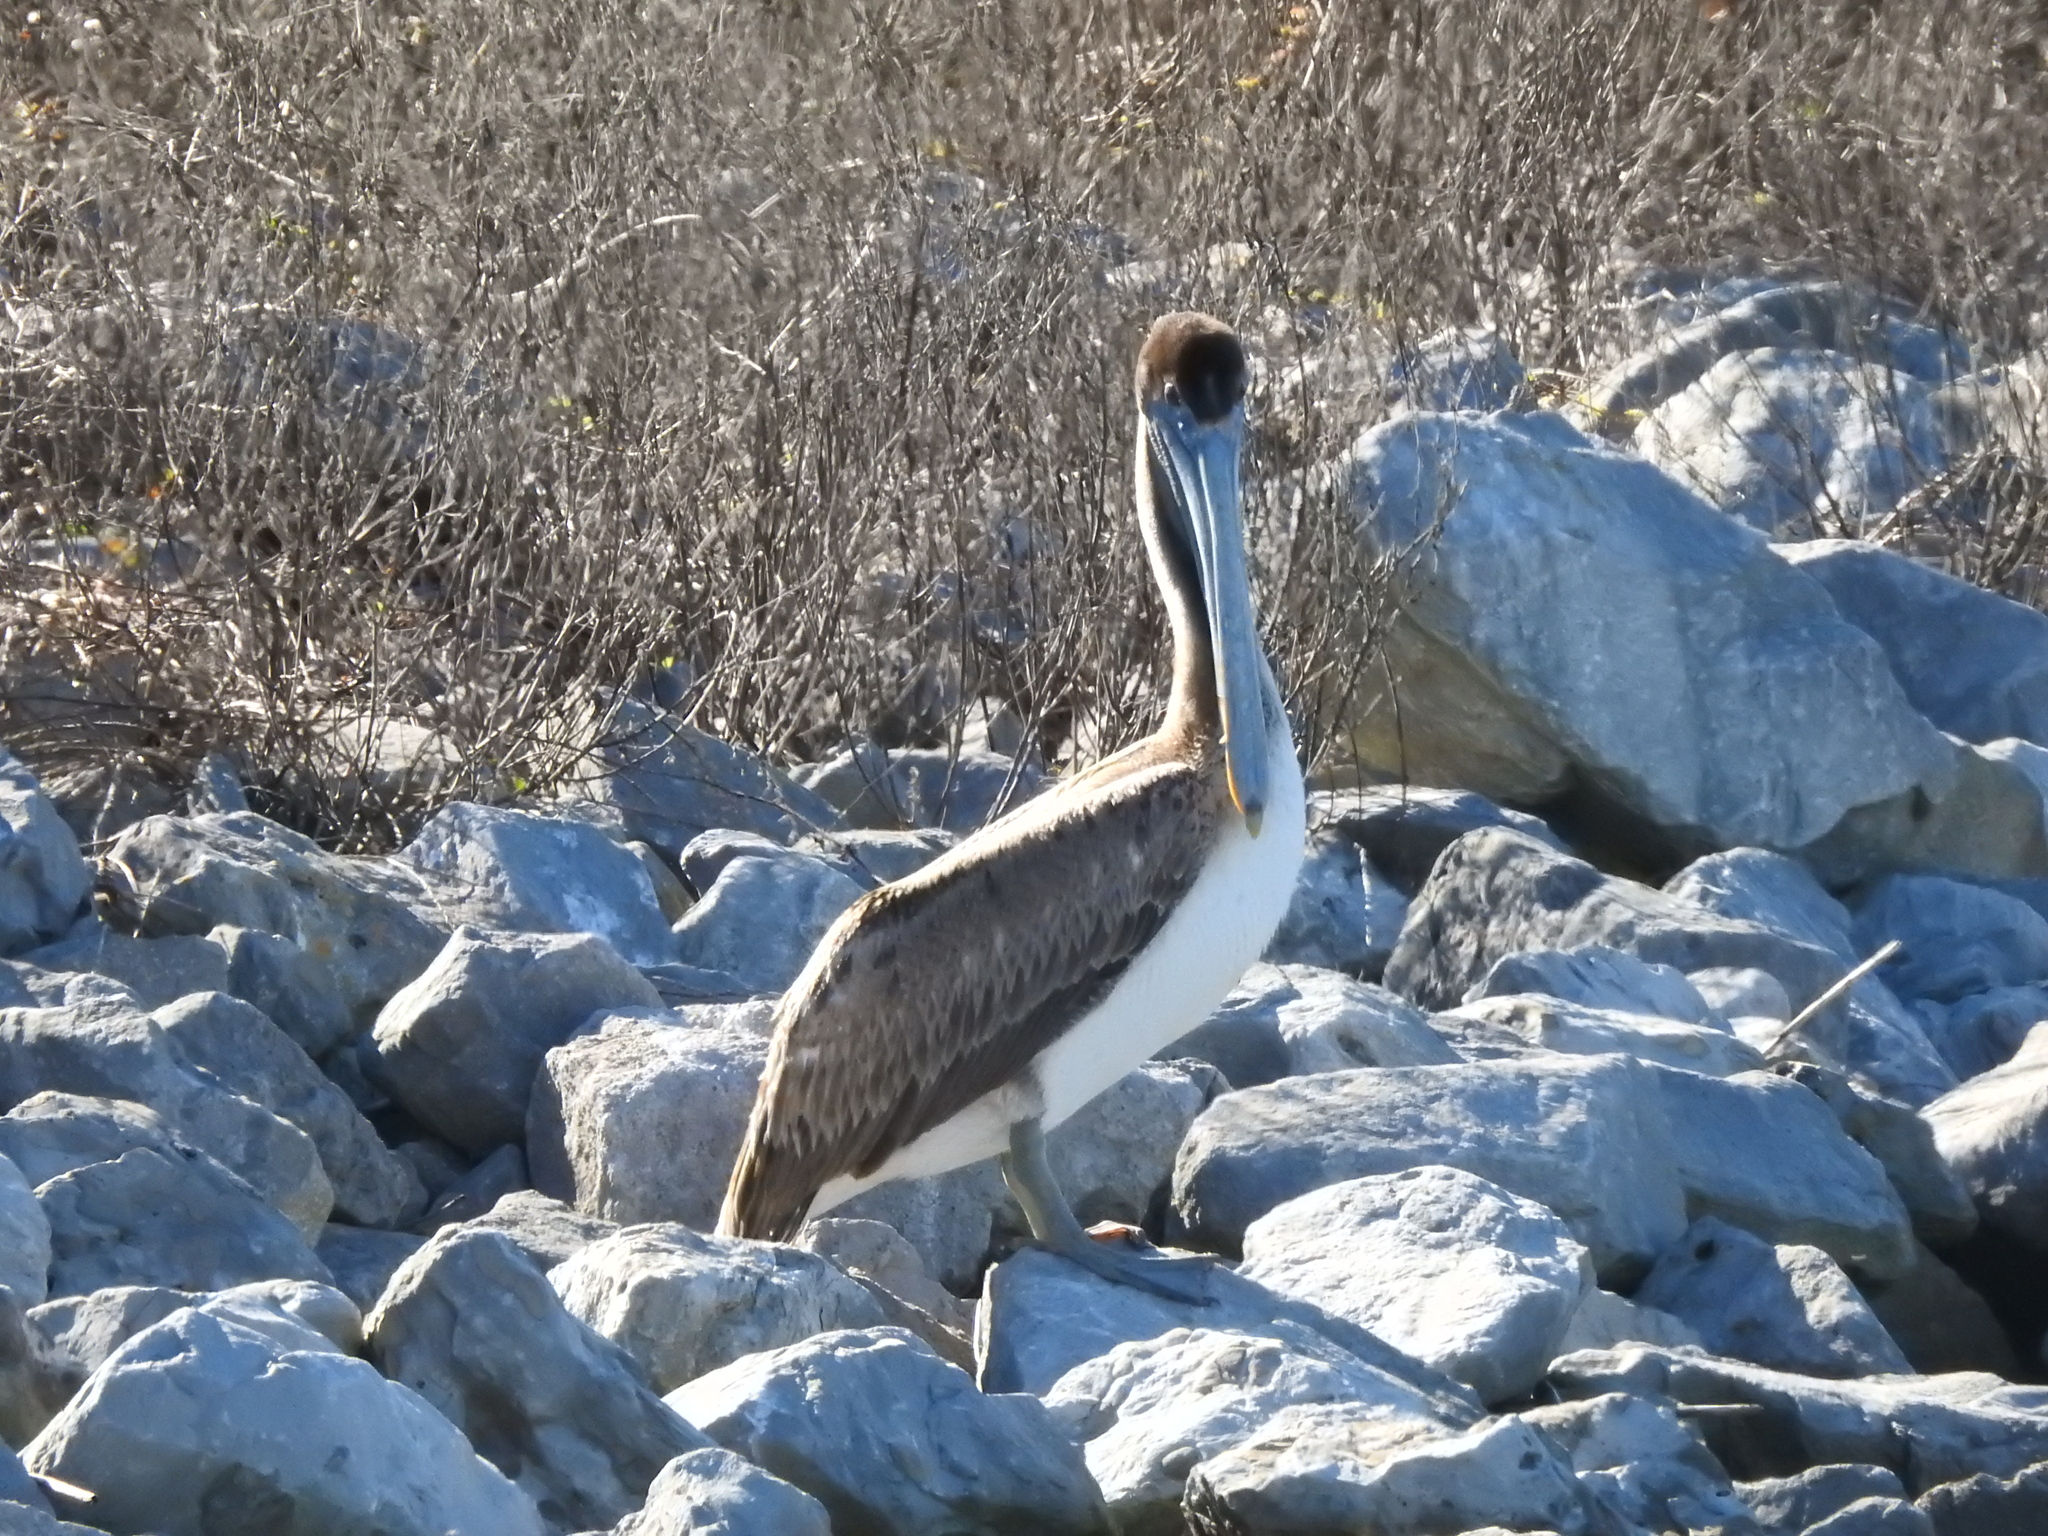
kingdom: Animalia
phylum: Chordata
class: Aves
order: Pelecaniformes
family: Pelecanidae
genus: Pelecanus
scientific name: Pelecanus occidentalis
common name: Brown pelican
